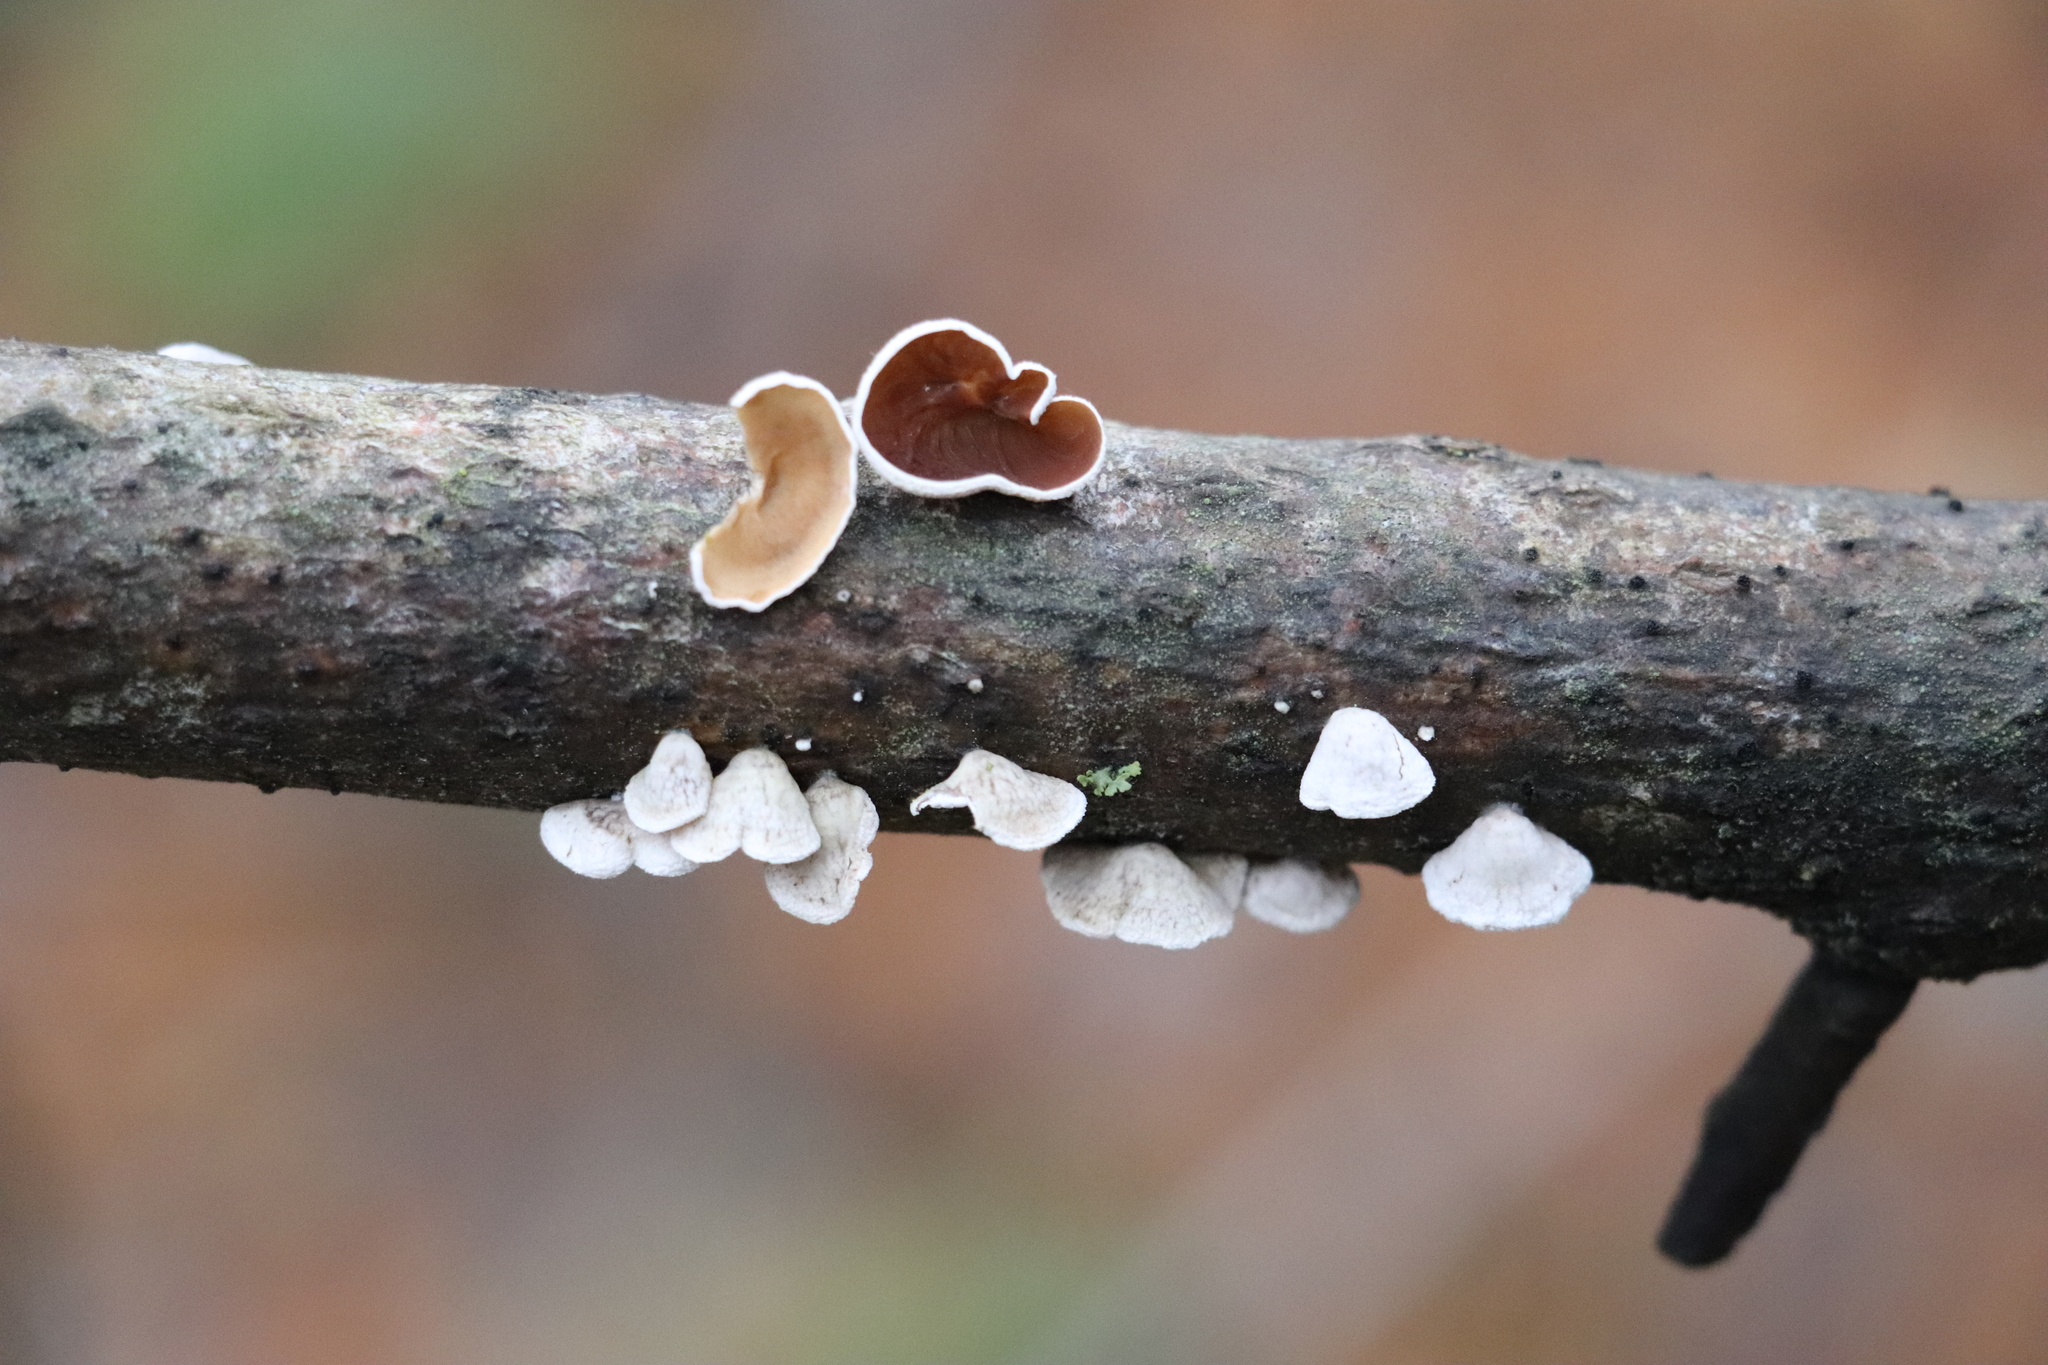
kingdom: Fungi
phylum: Basidiomycota
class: Agaricomycetes
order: Agaricales
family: Schizophyllaceae
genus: Schizophyllum
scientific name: Schizophyllum amplum
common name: Poplar bells
